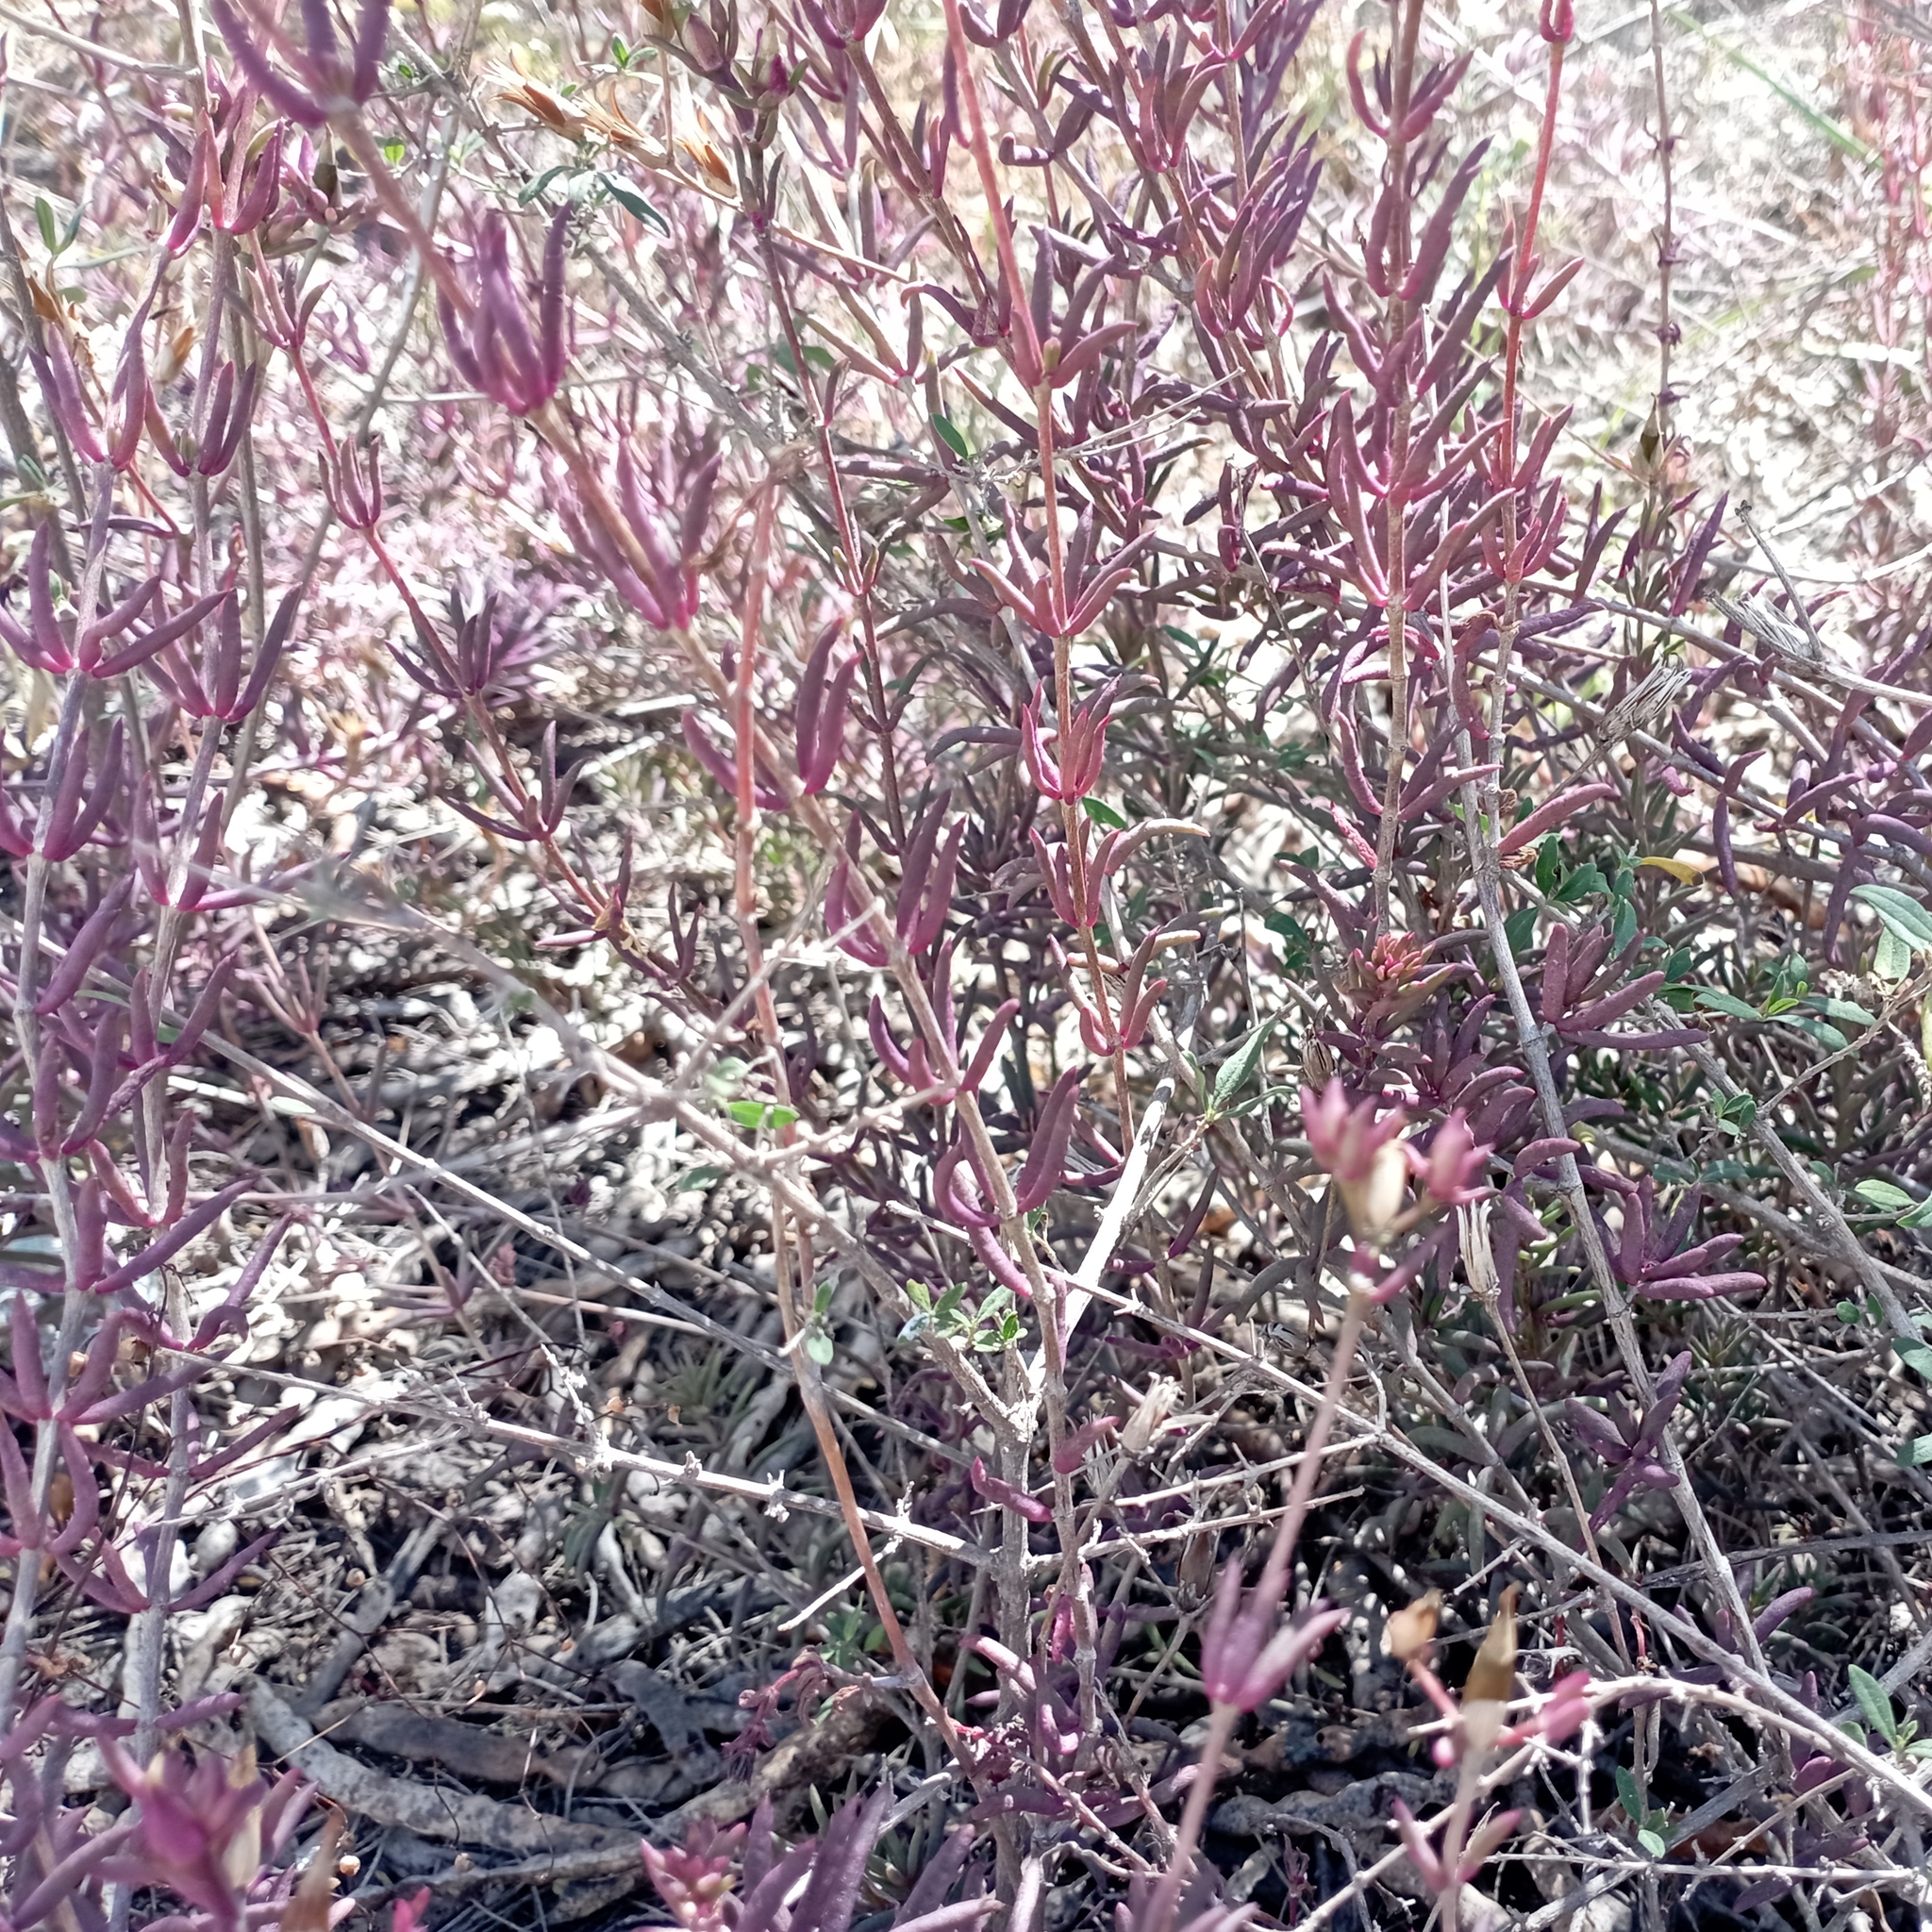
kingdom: Plantae
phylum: Tracheophyta
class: Magnoliopsida
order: Caryophyllales
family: Anacampserotaceae
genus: Grahamia
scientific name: Grahamia frutescens
